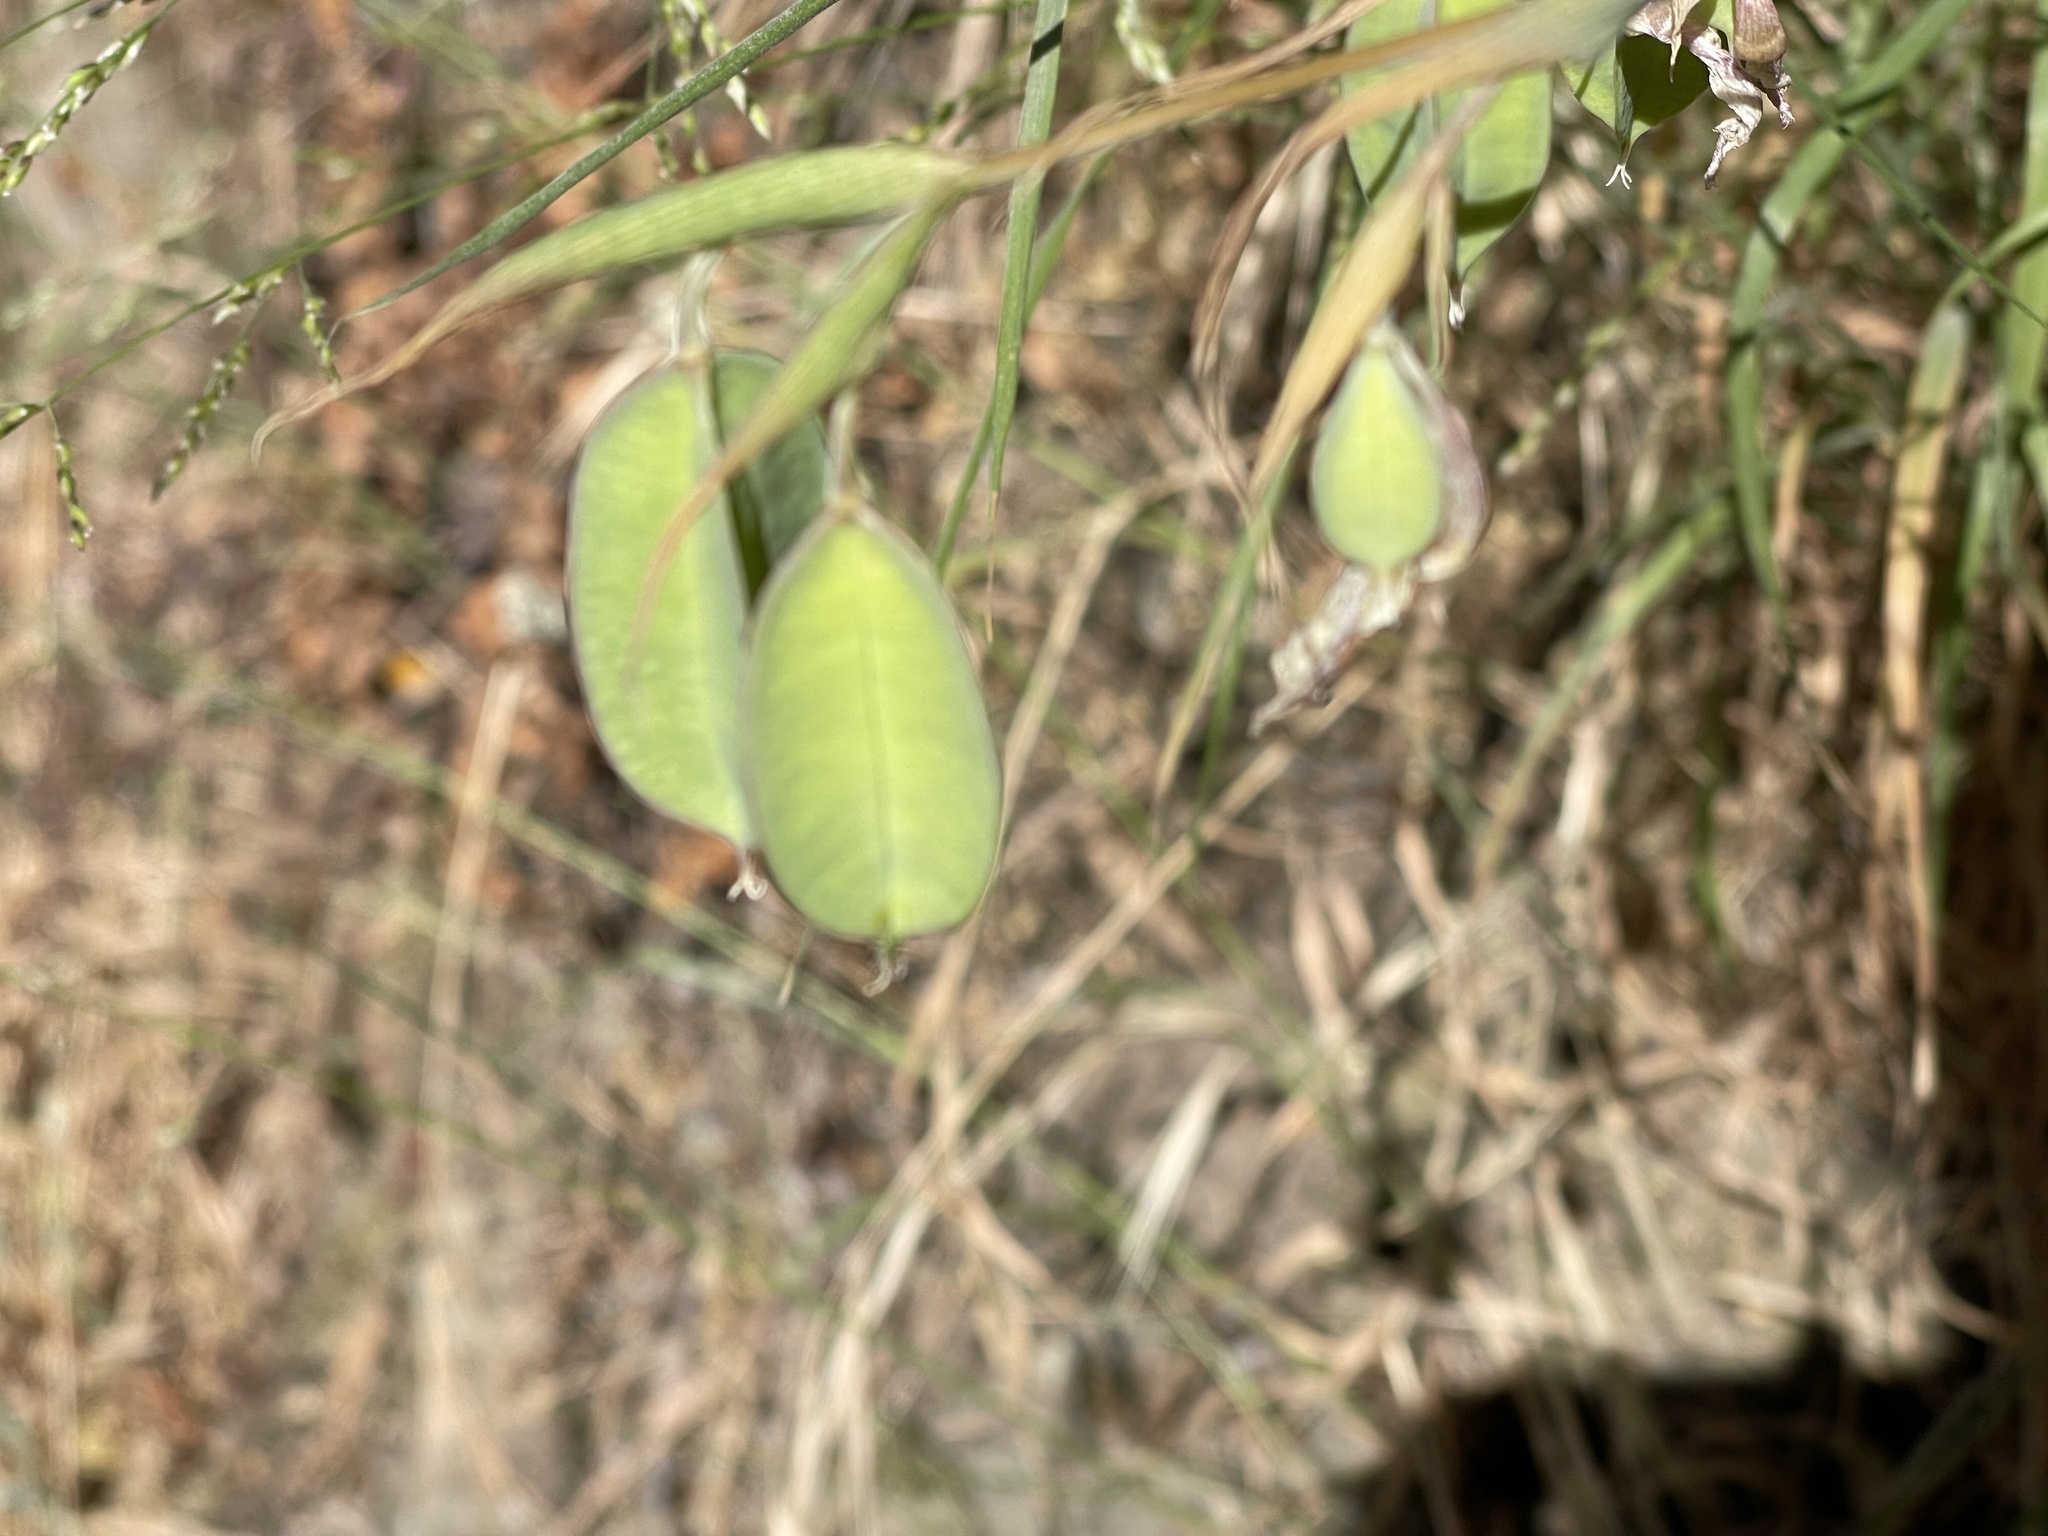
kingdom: Plantae
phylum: Tracheophyta
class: Liliopsida
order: Liliales
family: Liliaceae
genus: Calochortus
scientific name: Calochortus albus
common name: Fairy-lantern
